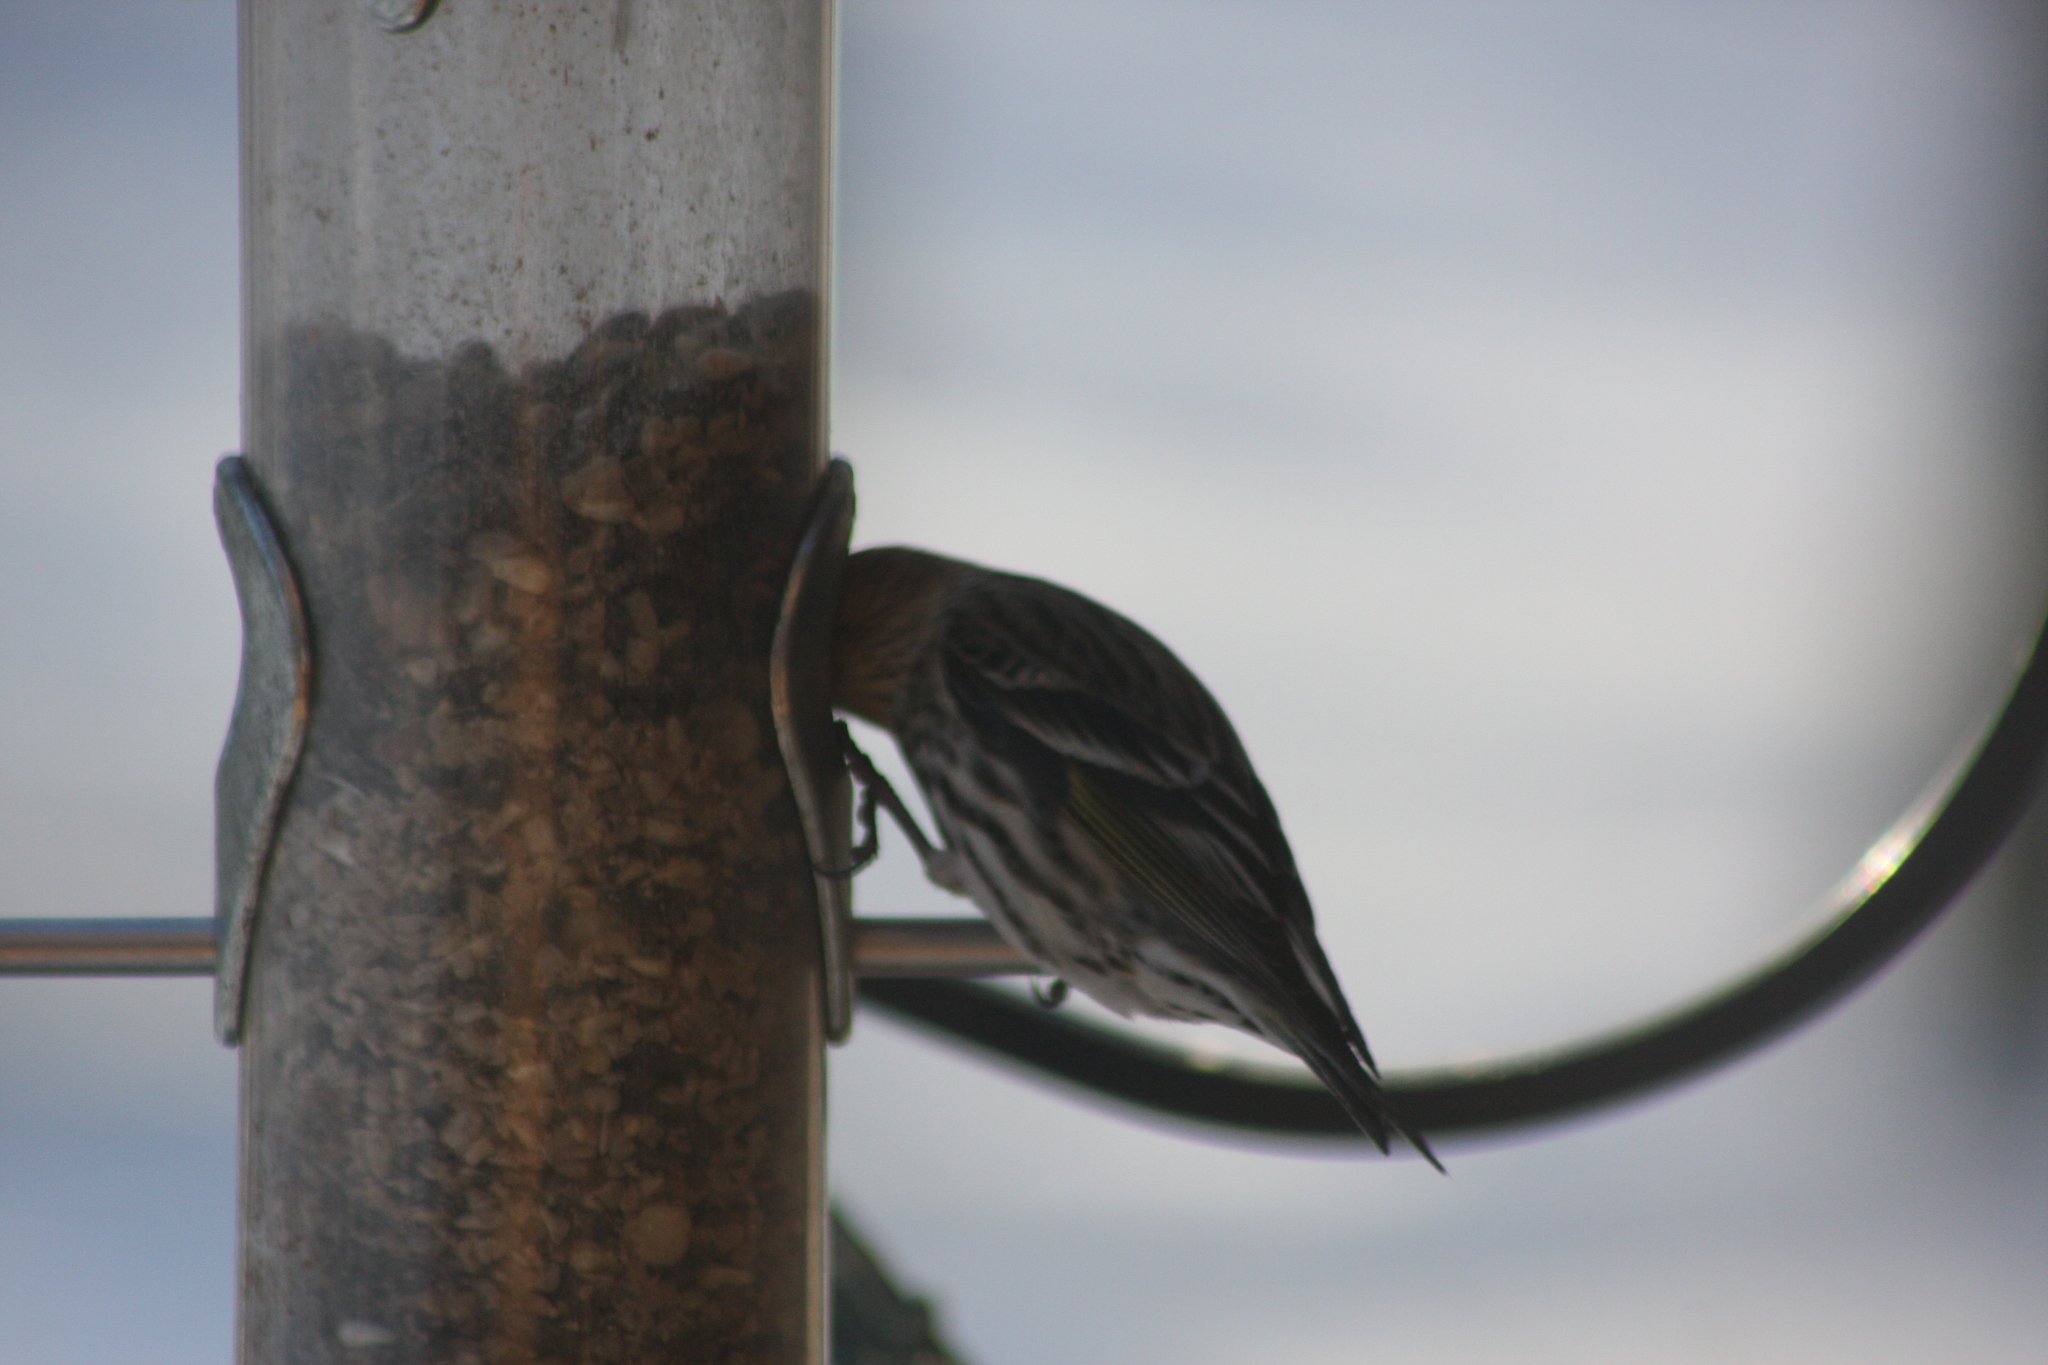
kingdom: Animalia
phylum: Chordata
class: Aves
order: Passeriformes
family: Fringillidae
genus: Spinus
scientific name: Spinus pinus
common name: Pine siskin
